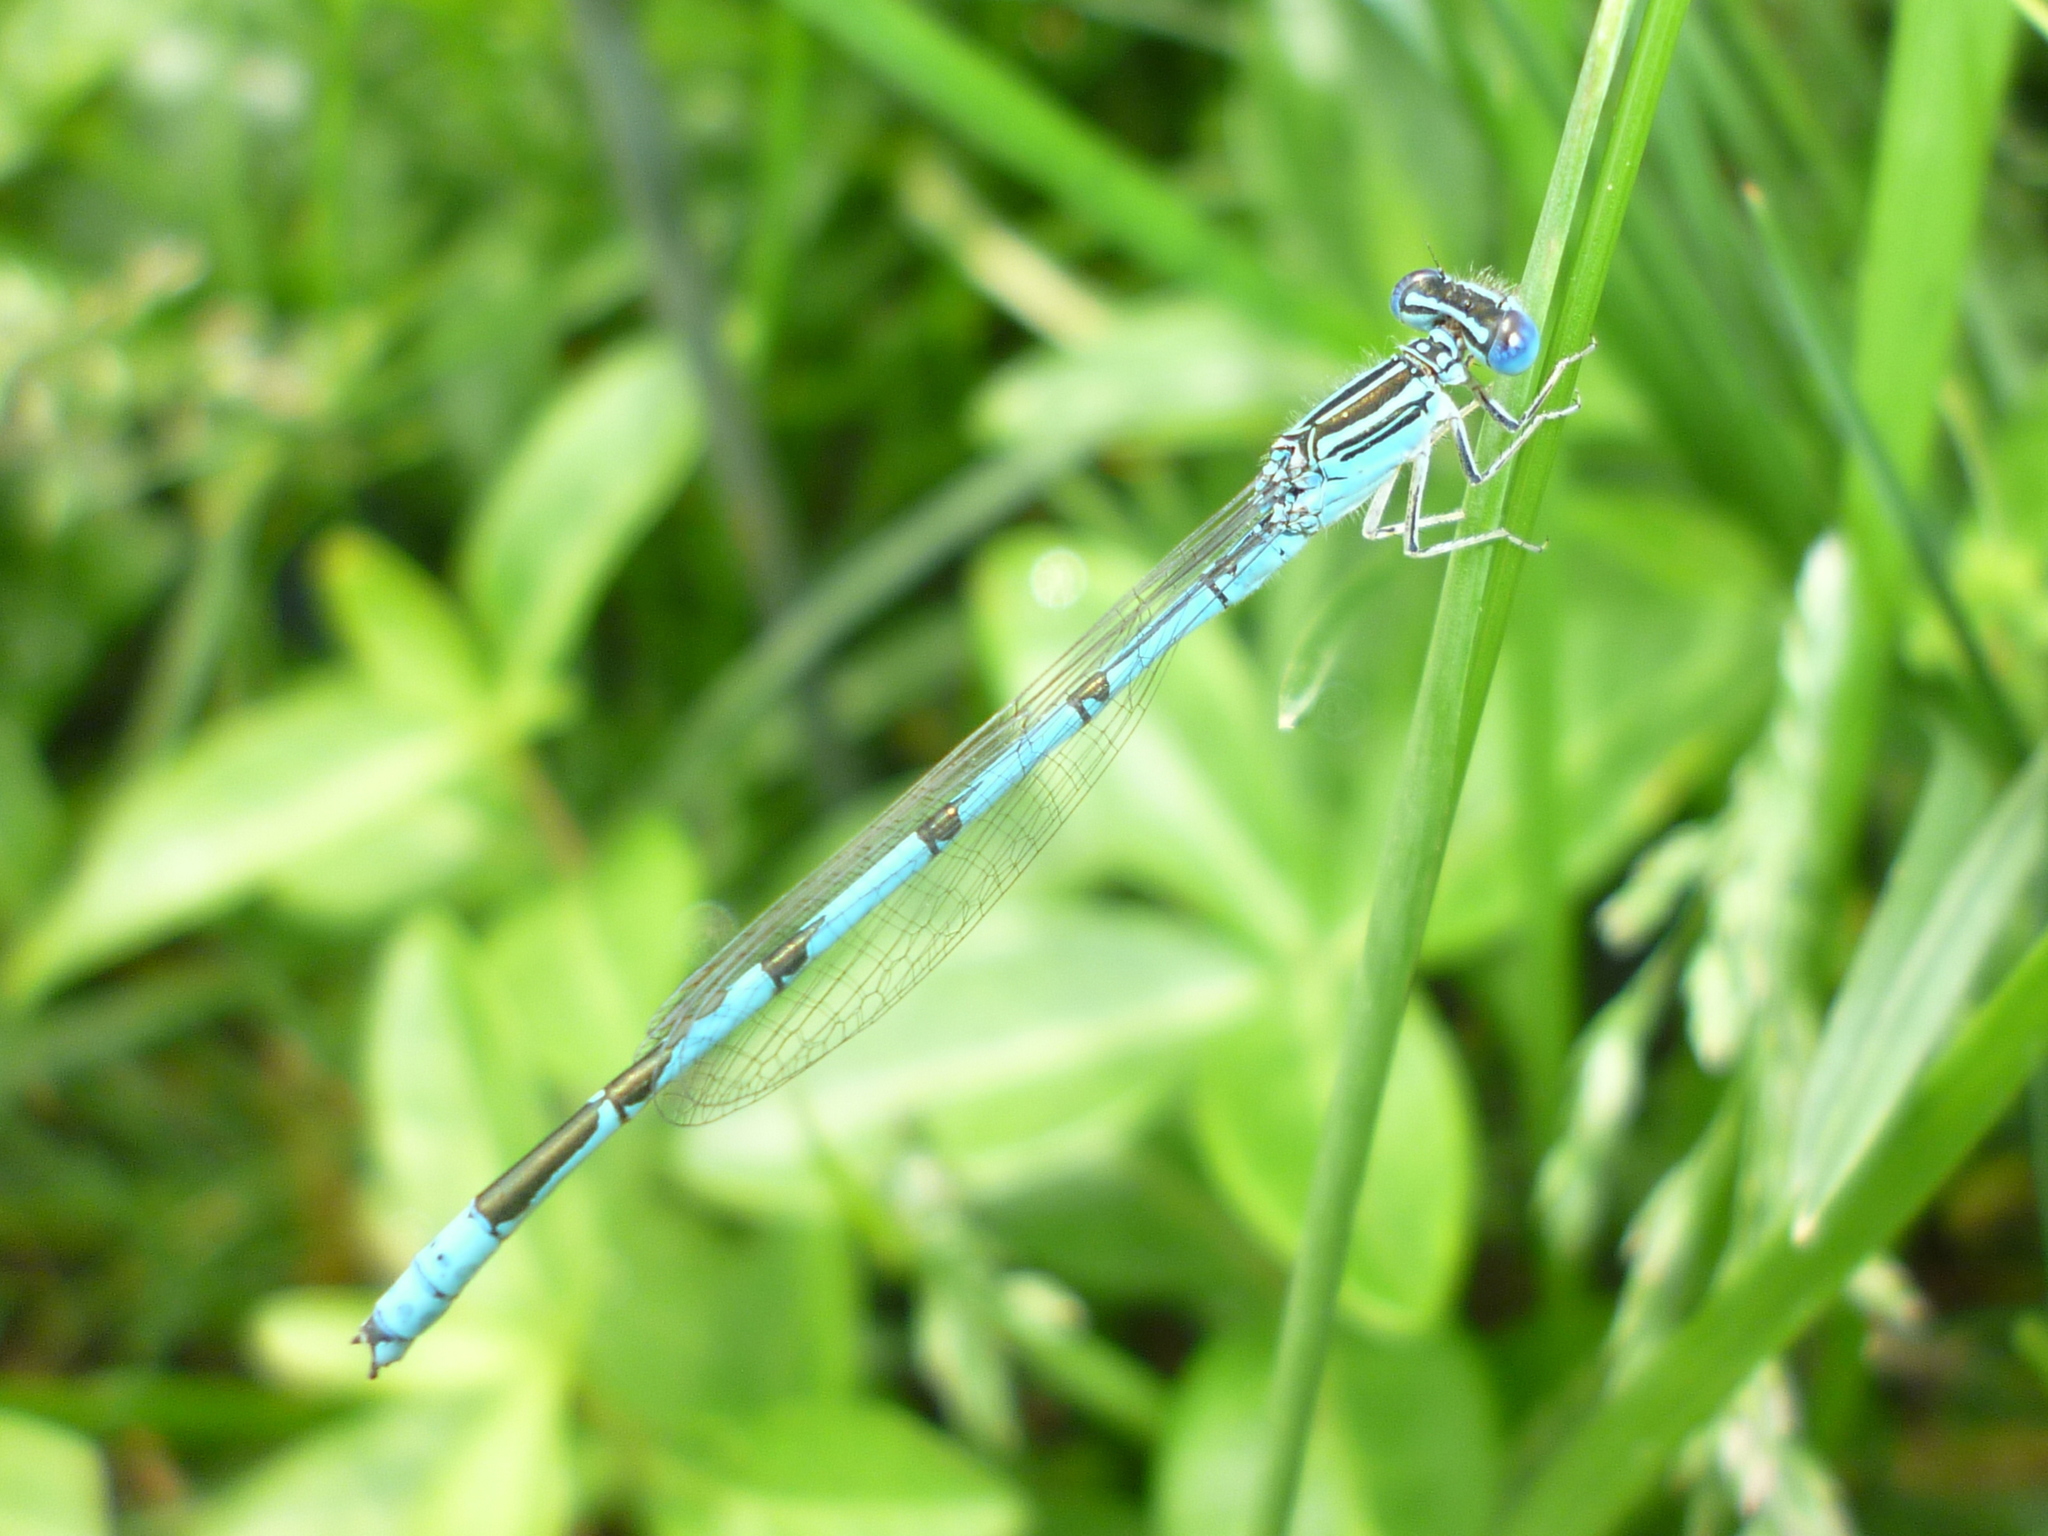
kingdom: Animalia
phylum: Arthropoda
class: Insecta
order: Odonata
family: Coenagrionidae
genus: Enallagma
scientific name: Enallagma basidens
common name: Double-striped bluet
